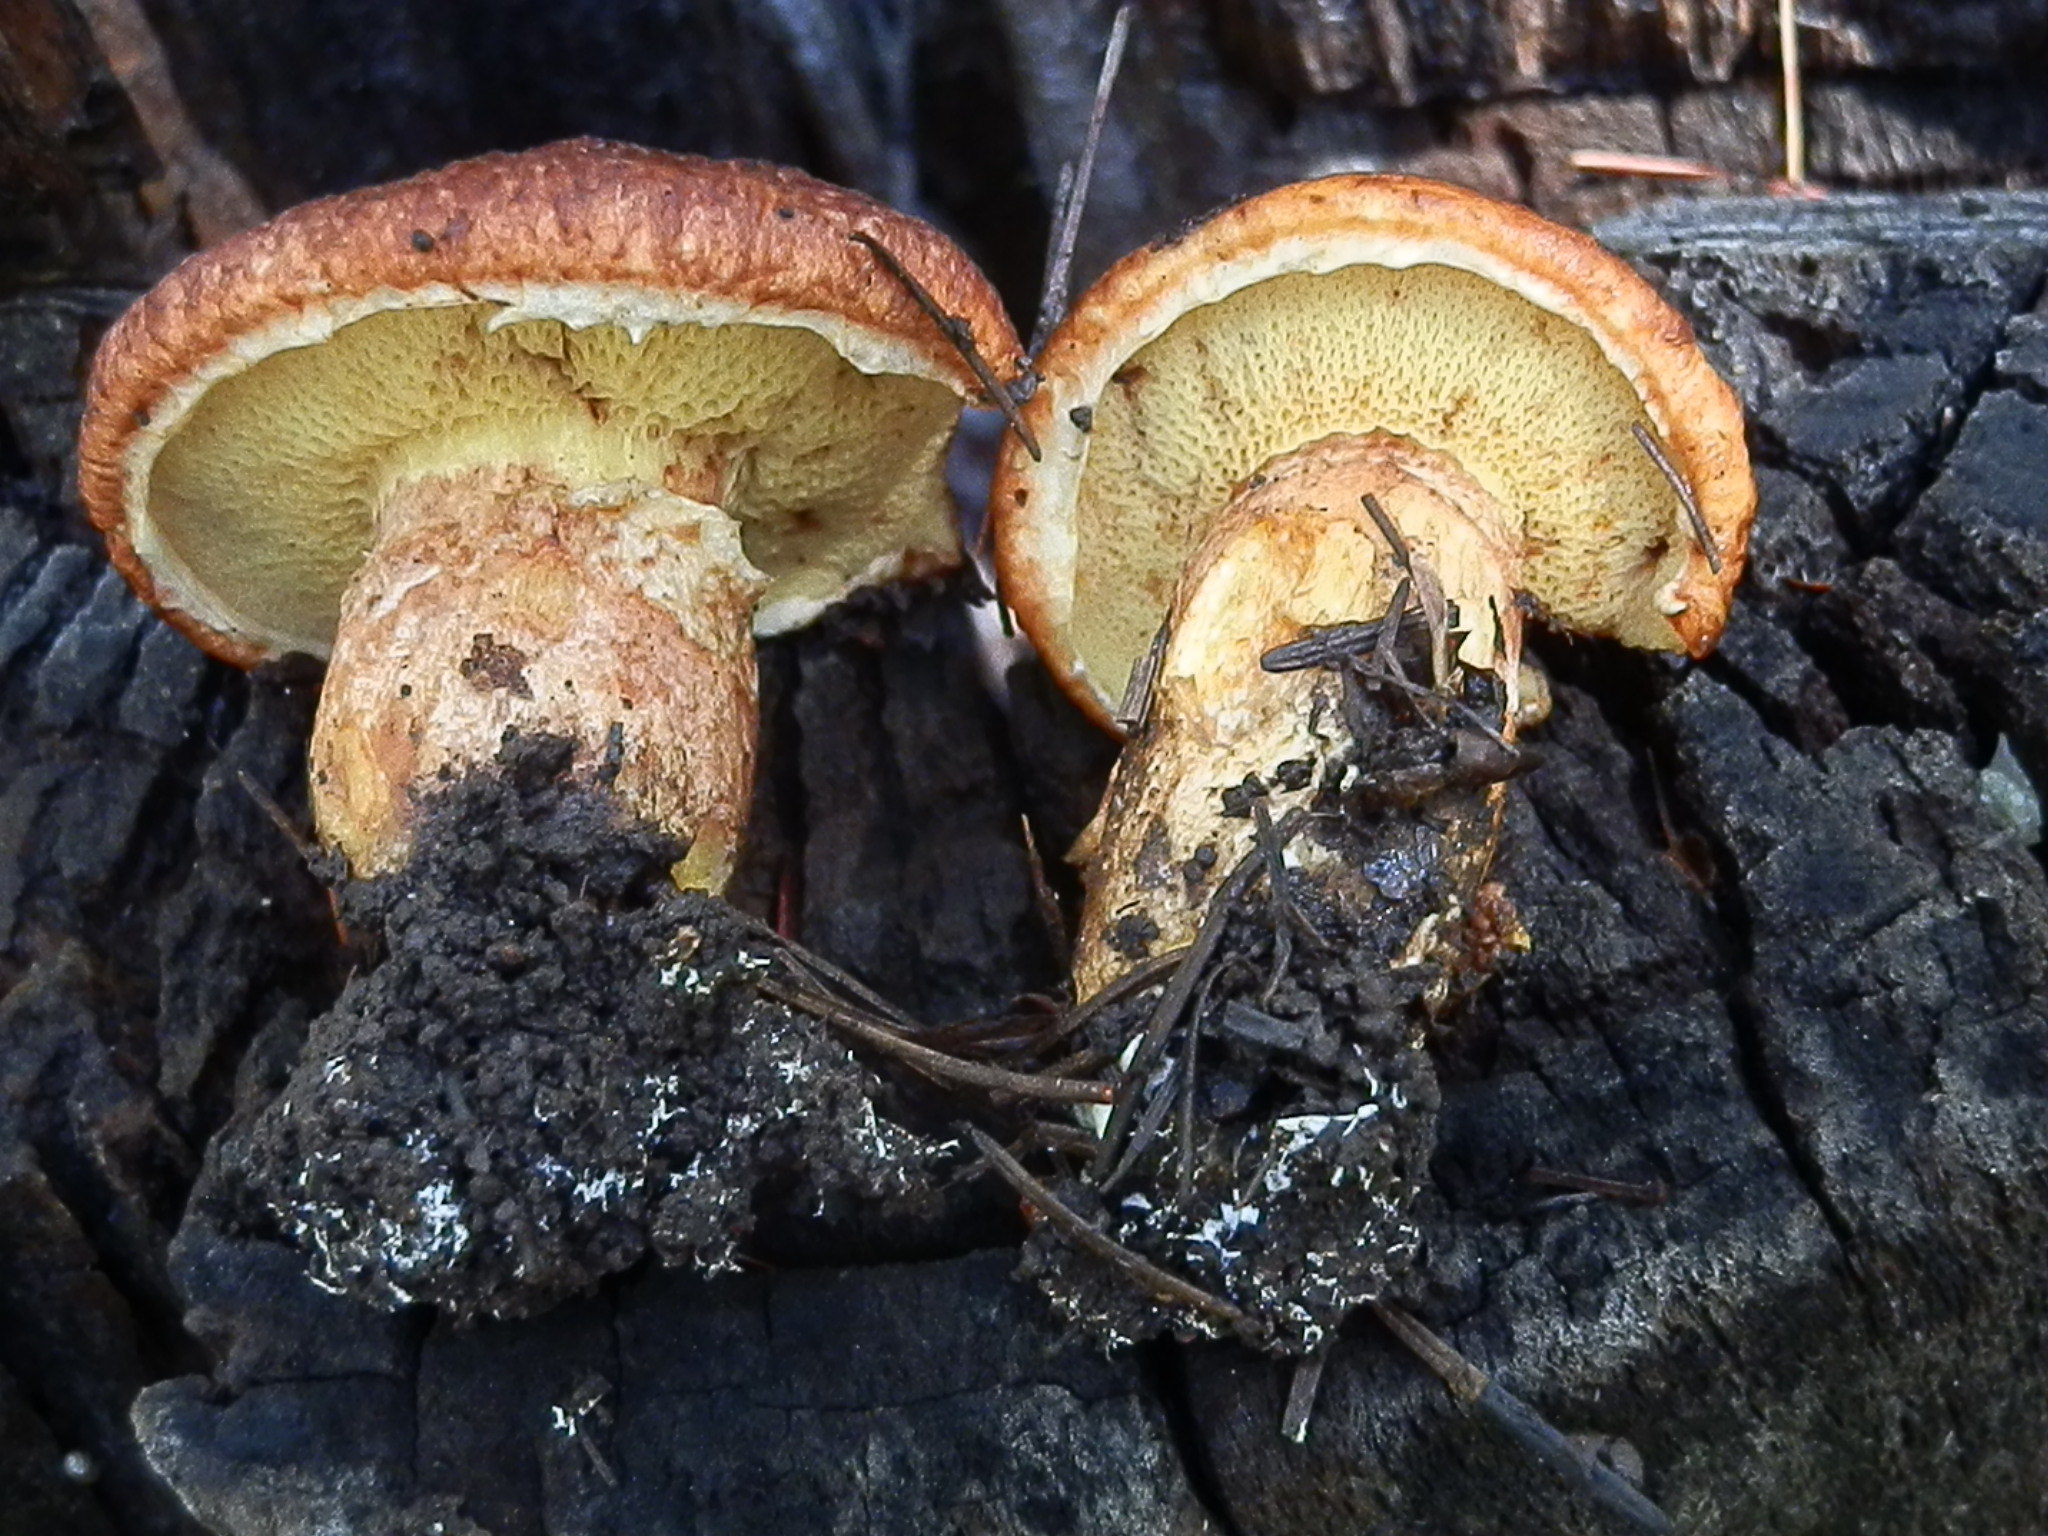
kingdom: Fungi
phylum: Basidiomycota
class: Agaricomycetes
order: Boletales
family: Suillaceae
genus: Suillus
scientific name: Suillus lakei
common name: Western painted suillus
